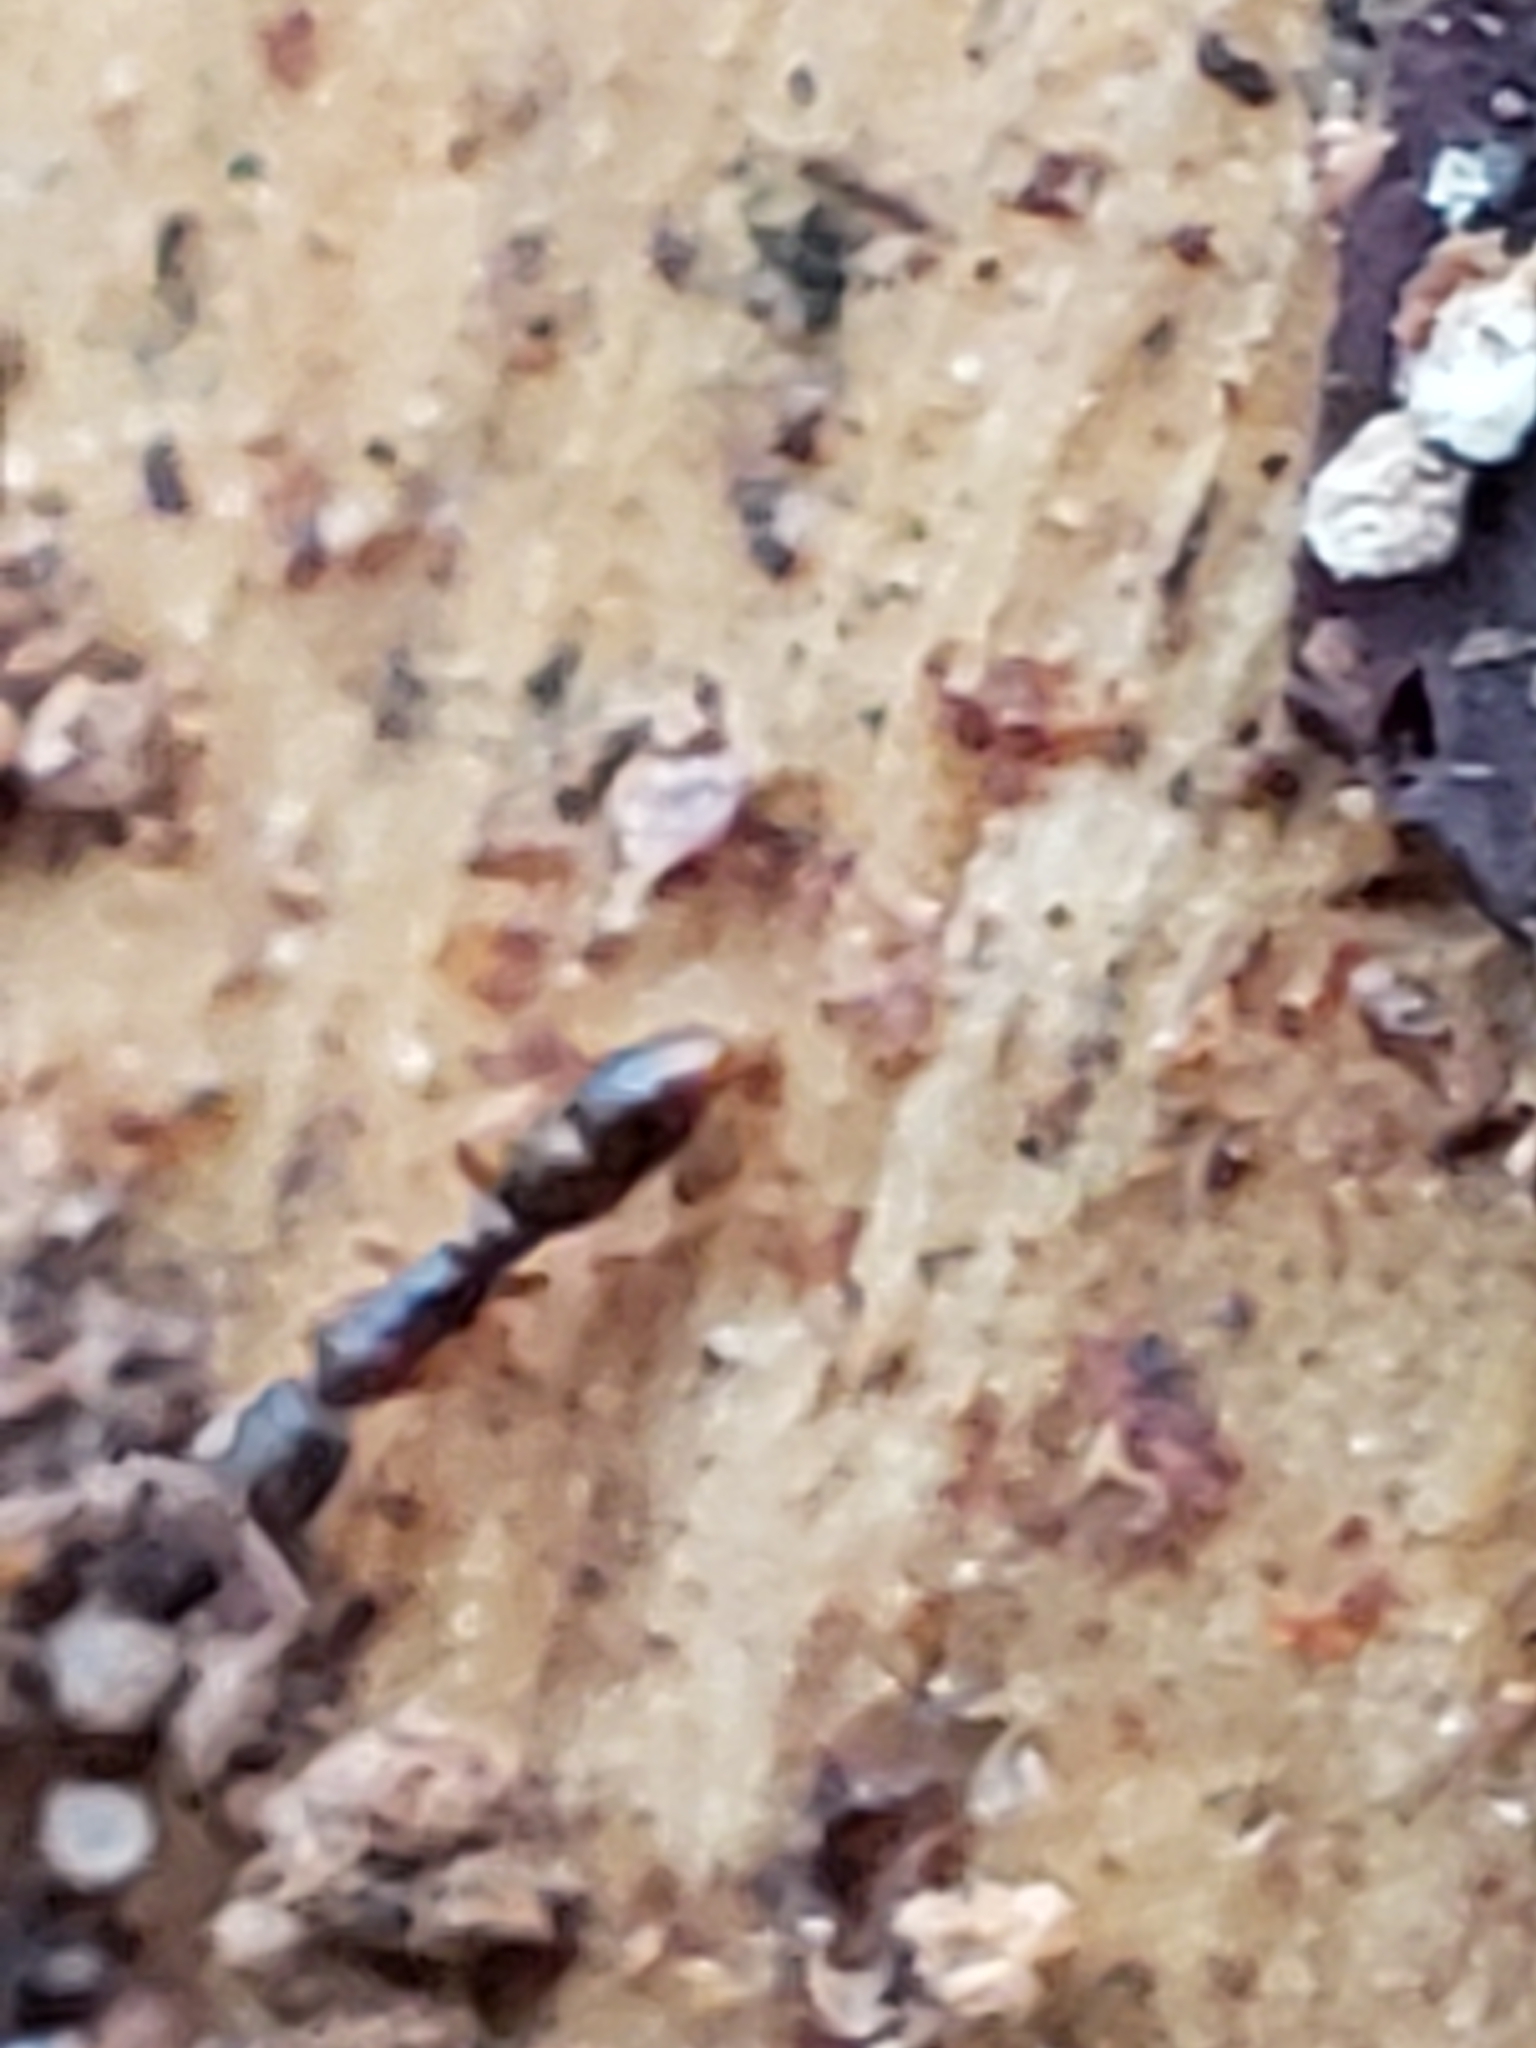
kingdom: Animalia
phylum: Arthropoda
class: Insecta
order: Hymenoptera
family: Formicidae
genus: Ponera
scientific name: Ponera pennsylvanica
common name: Pennsylvania ponera
